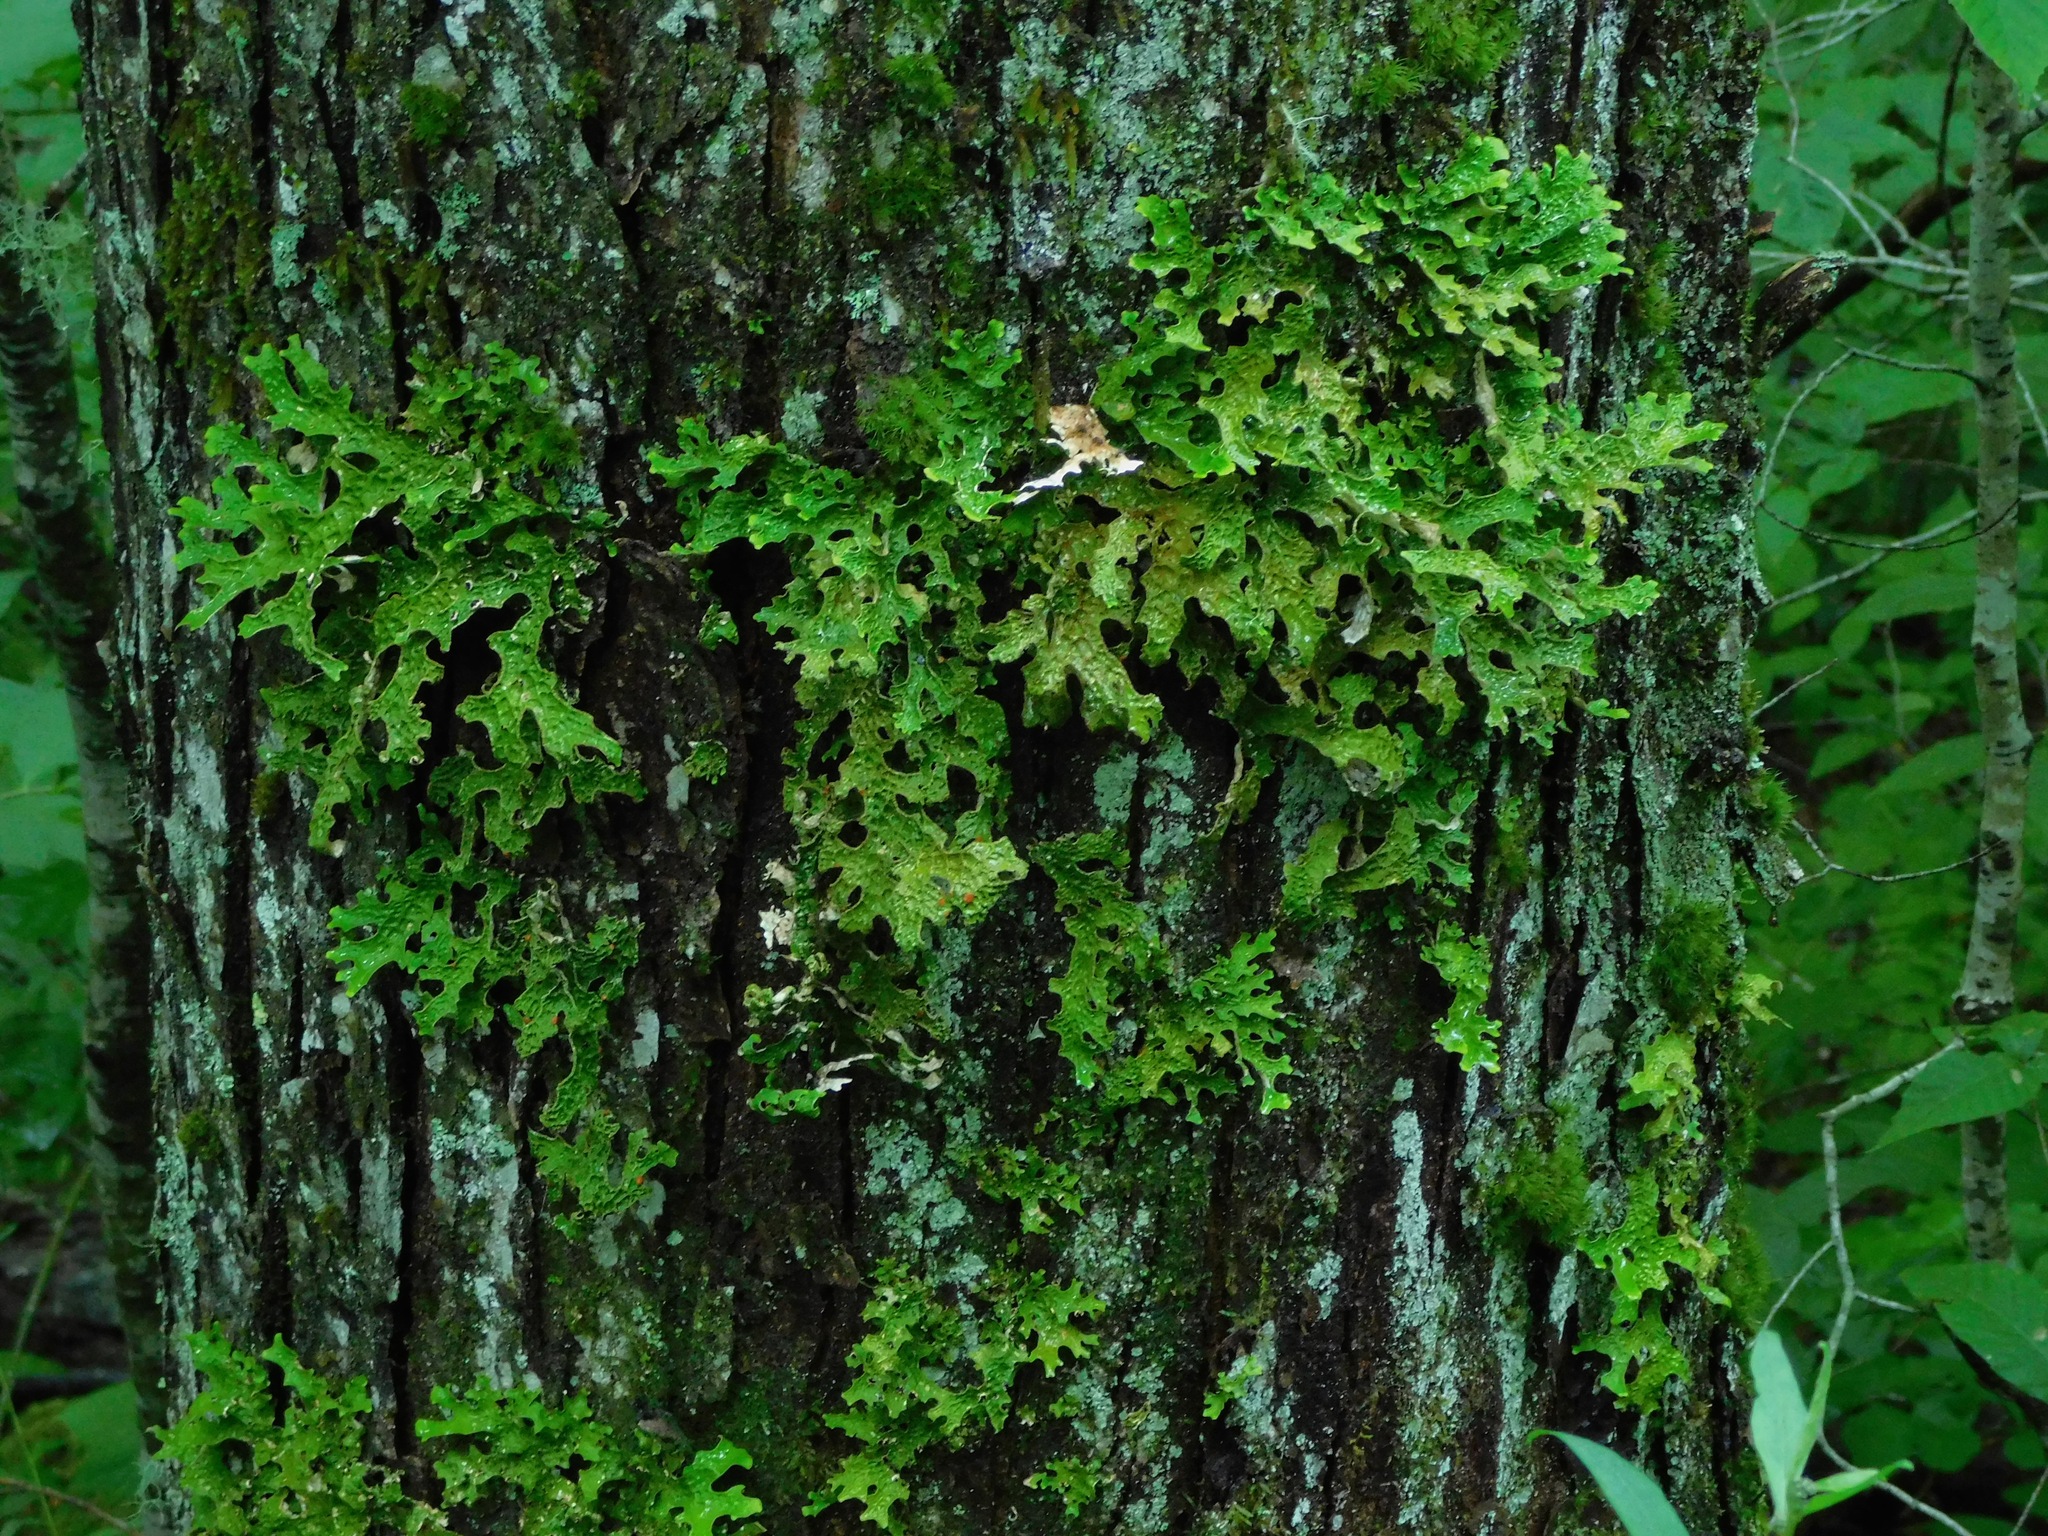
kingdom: Fungi
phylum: Ascomycota
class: Lecanoromycetes
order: Peltigerales
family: Lobariaceae
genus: Lobaria
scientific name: Lobaria pulmonaria
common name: Lungwort
